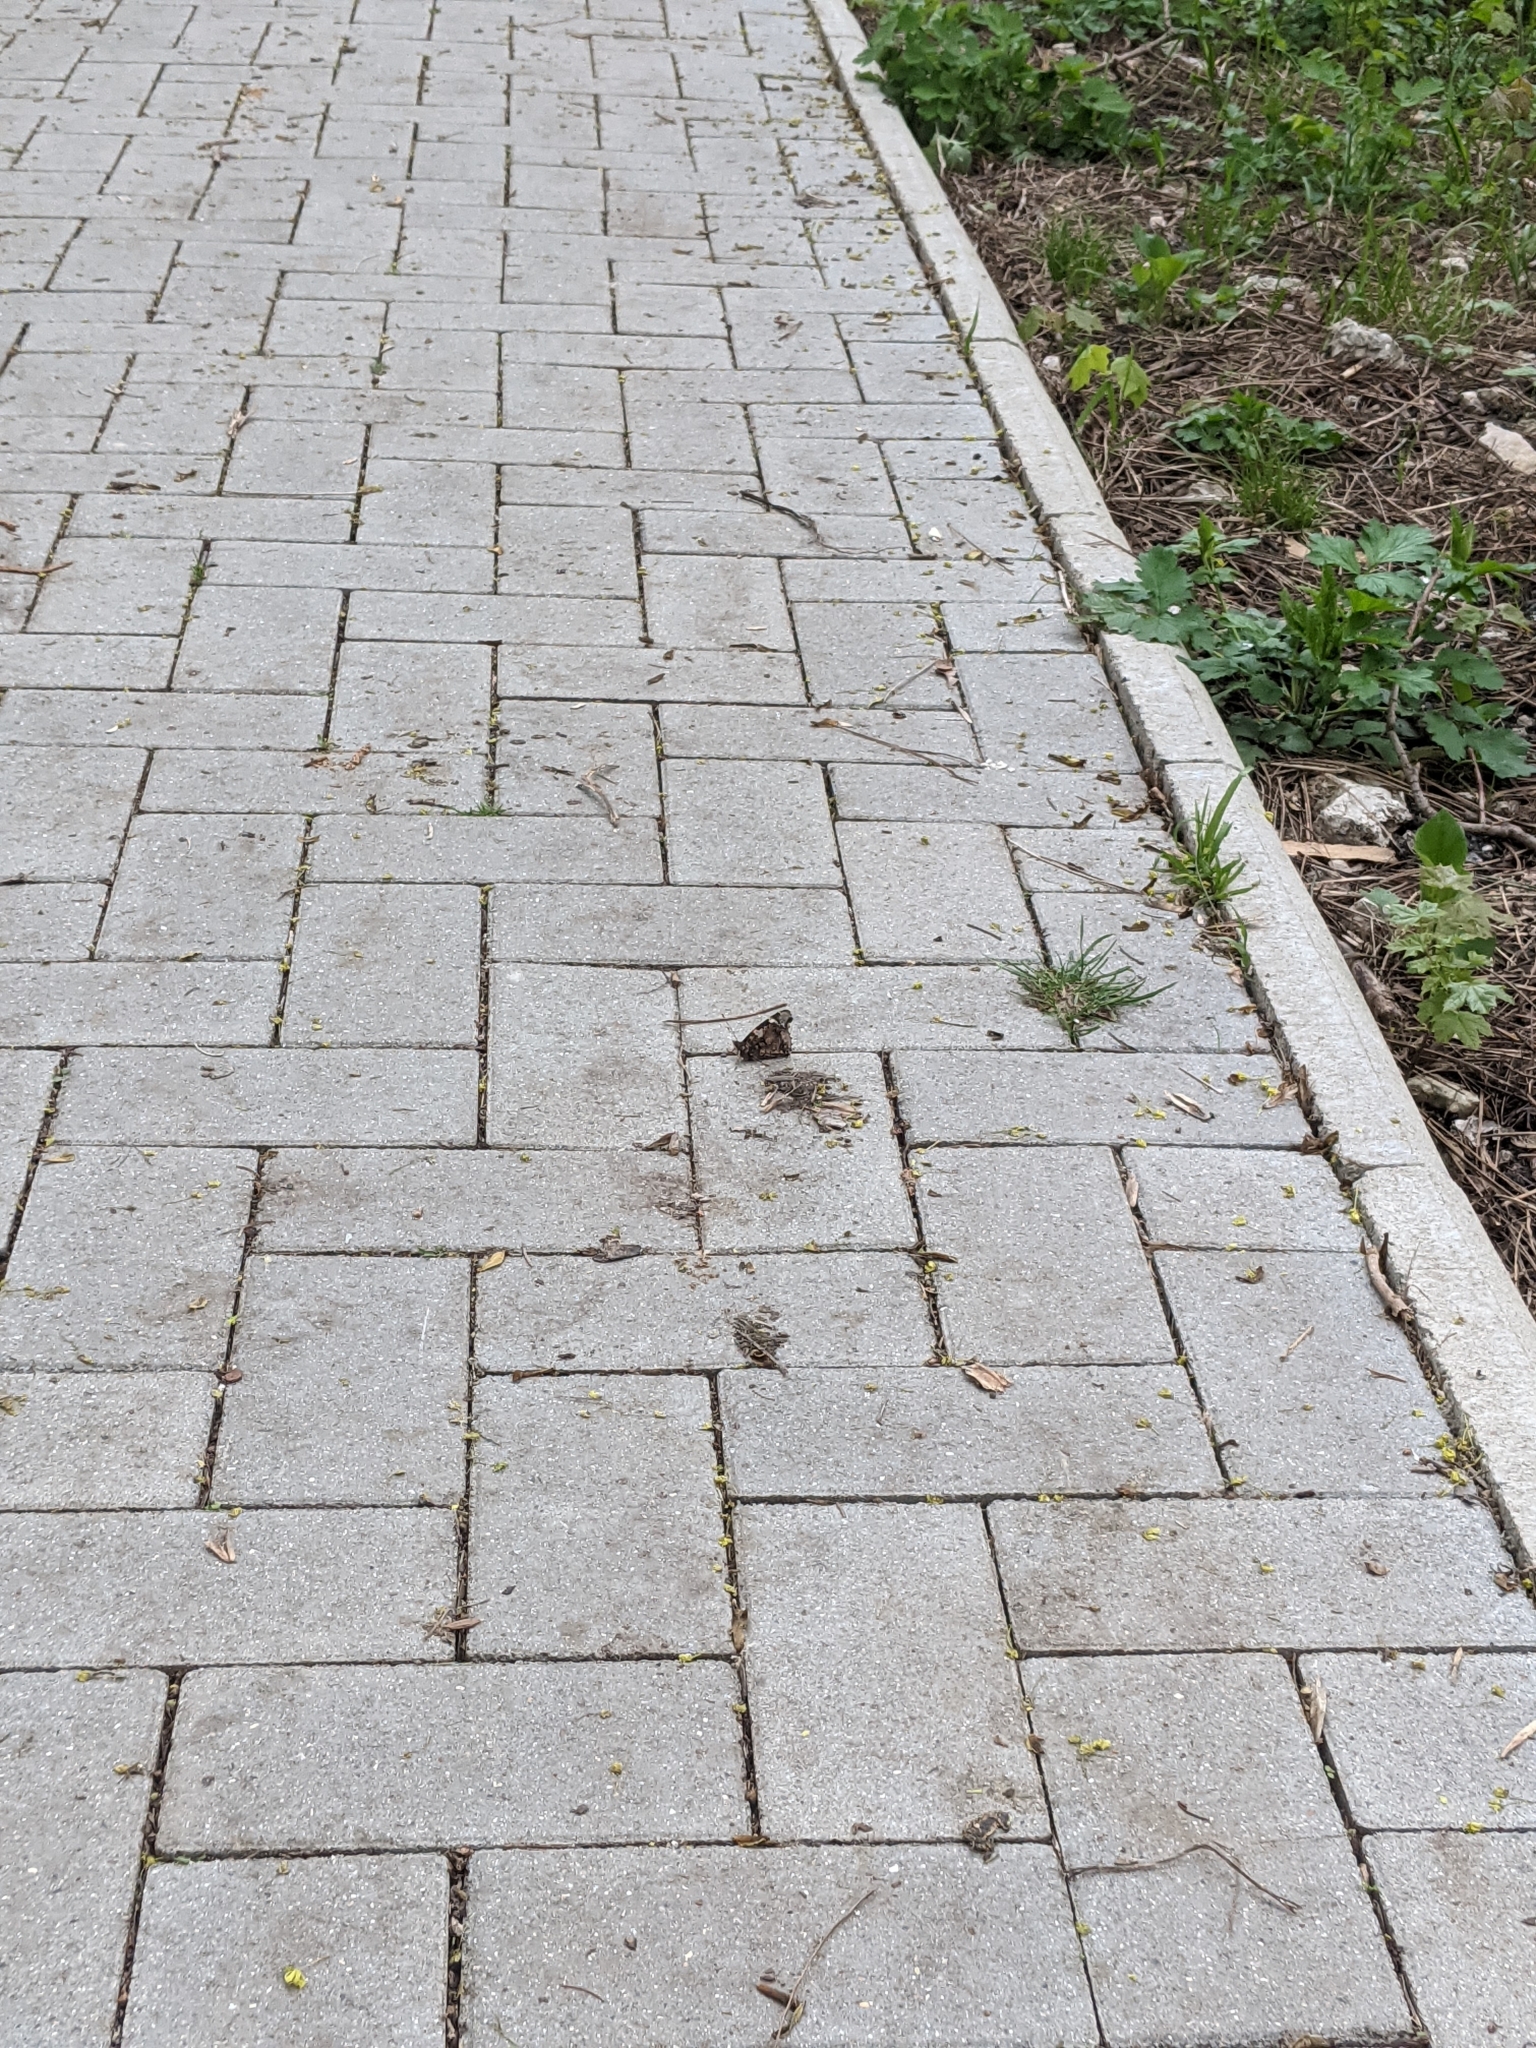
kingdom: Animalia
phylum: Arthropoda
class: Insecta
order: Lepidoptera
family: Nymphalidae
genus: Vanessa
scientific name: Vanessa atalanta
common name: Red admiral
